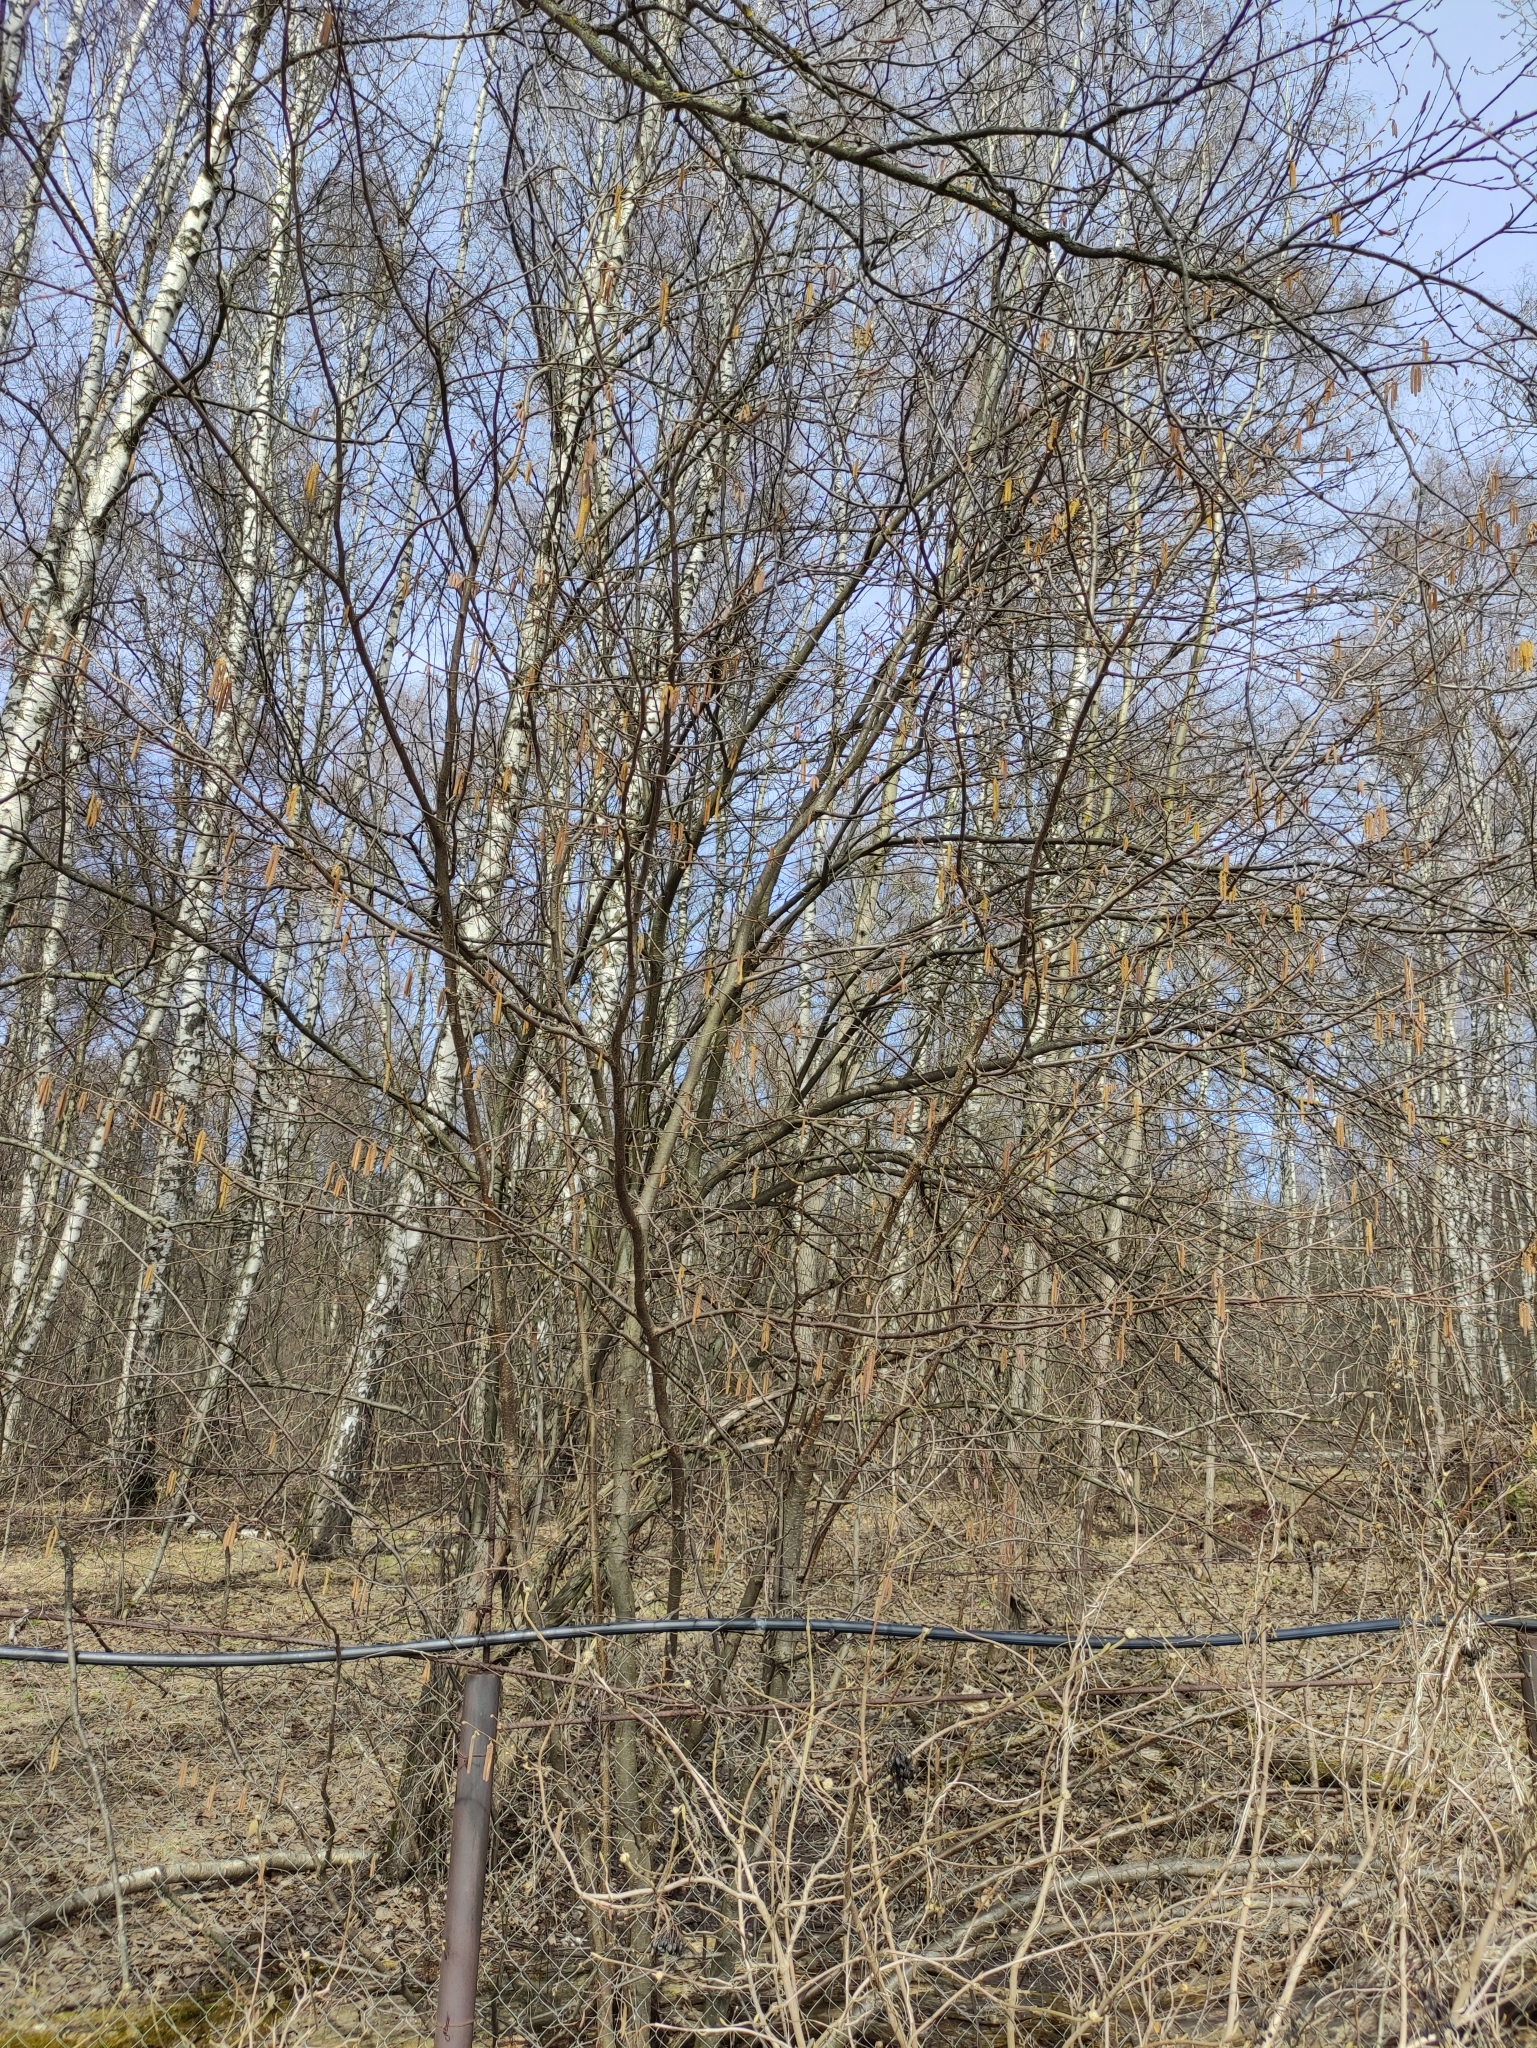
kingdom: Plantae
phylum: Tracheophyta
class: Magnoliopsida
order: Fagales
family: Betulaceae
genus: Corylus
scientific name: Corylus avellana
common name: European hazel
